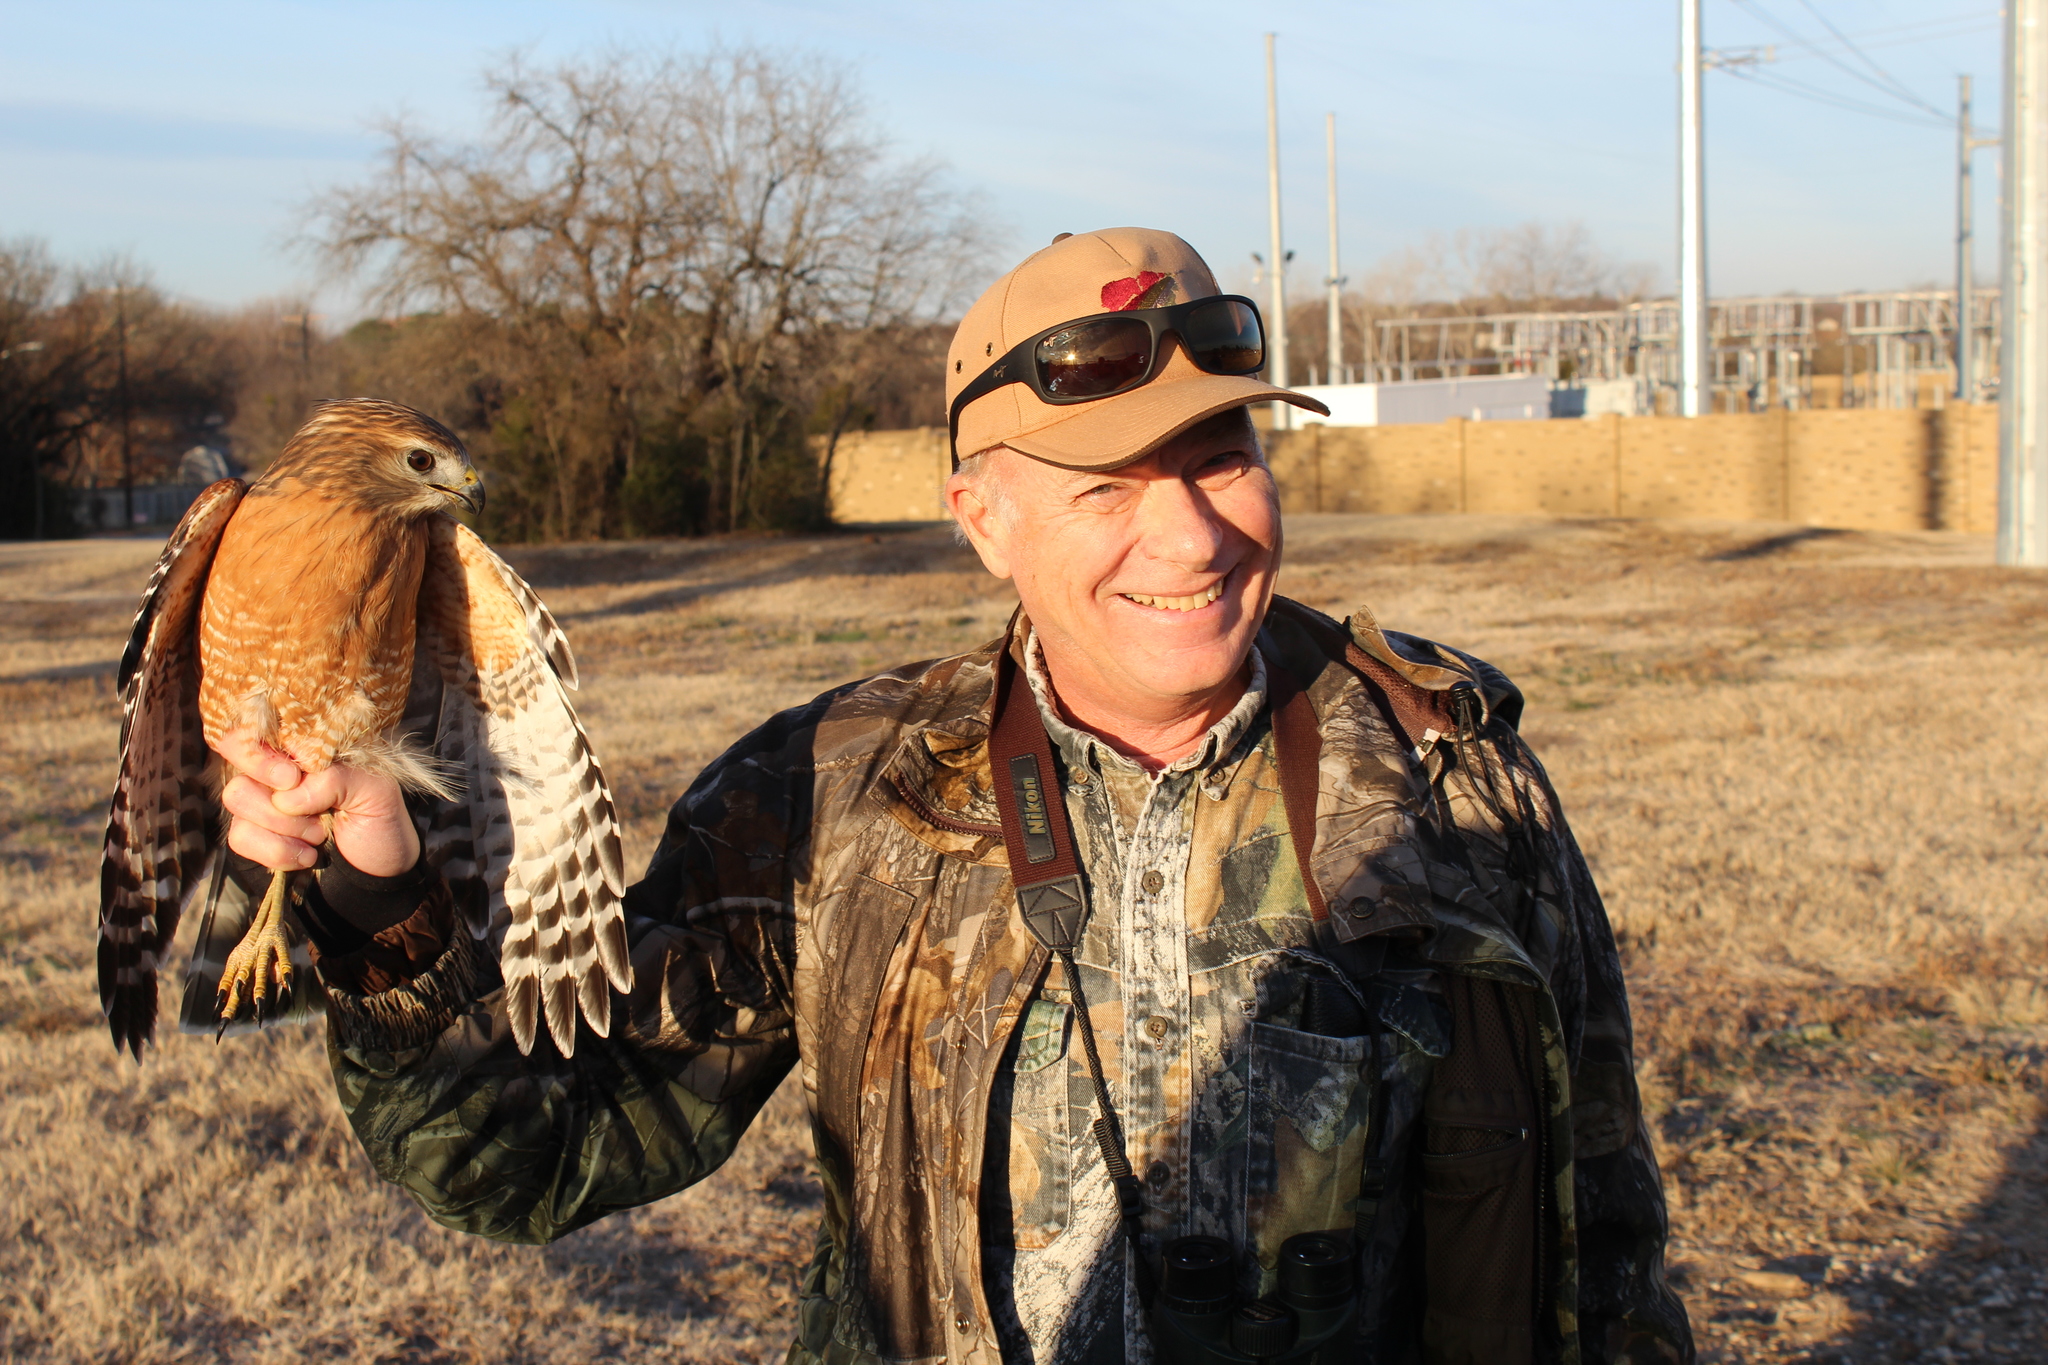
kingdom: Animalia
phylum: Chordata
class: Aves
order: Accipitriformes
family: Accipitridae
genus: Buteo
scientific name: Buteo lineatus
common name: Red-shouldered hawk
